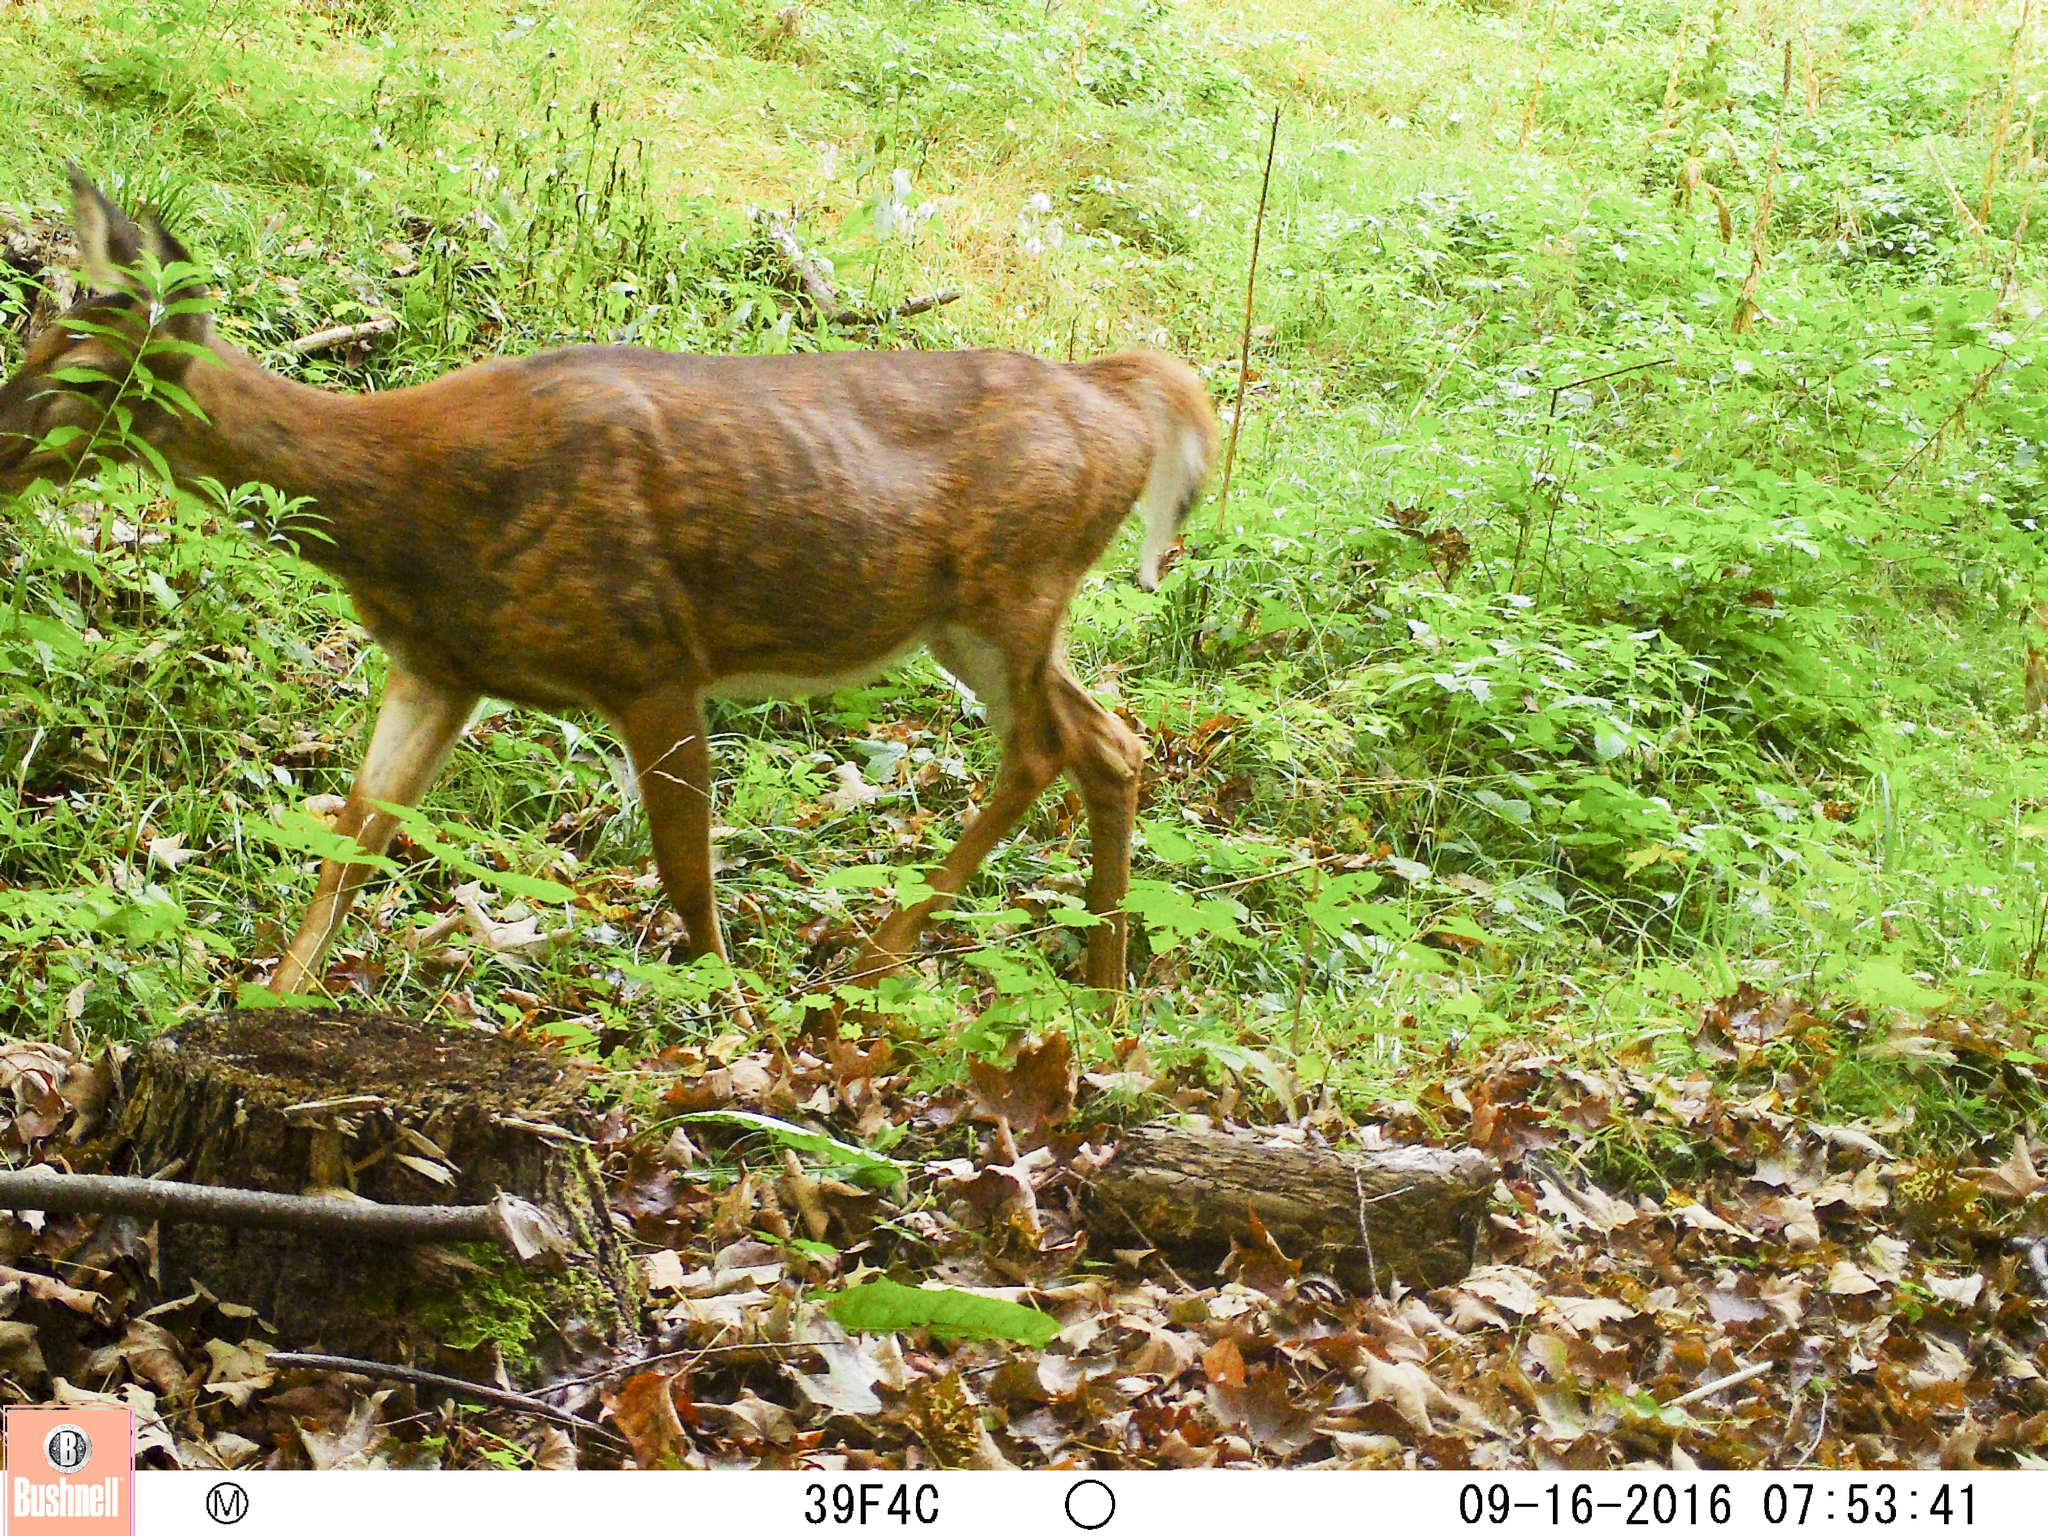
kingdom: Animalia
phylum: Chordata
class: Mammalia
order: Artiodactyla
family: Cervidae
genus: Odocoileus
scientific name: Odocoileus virginianus
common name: White-tailed deer
